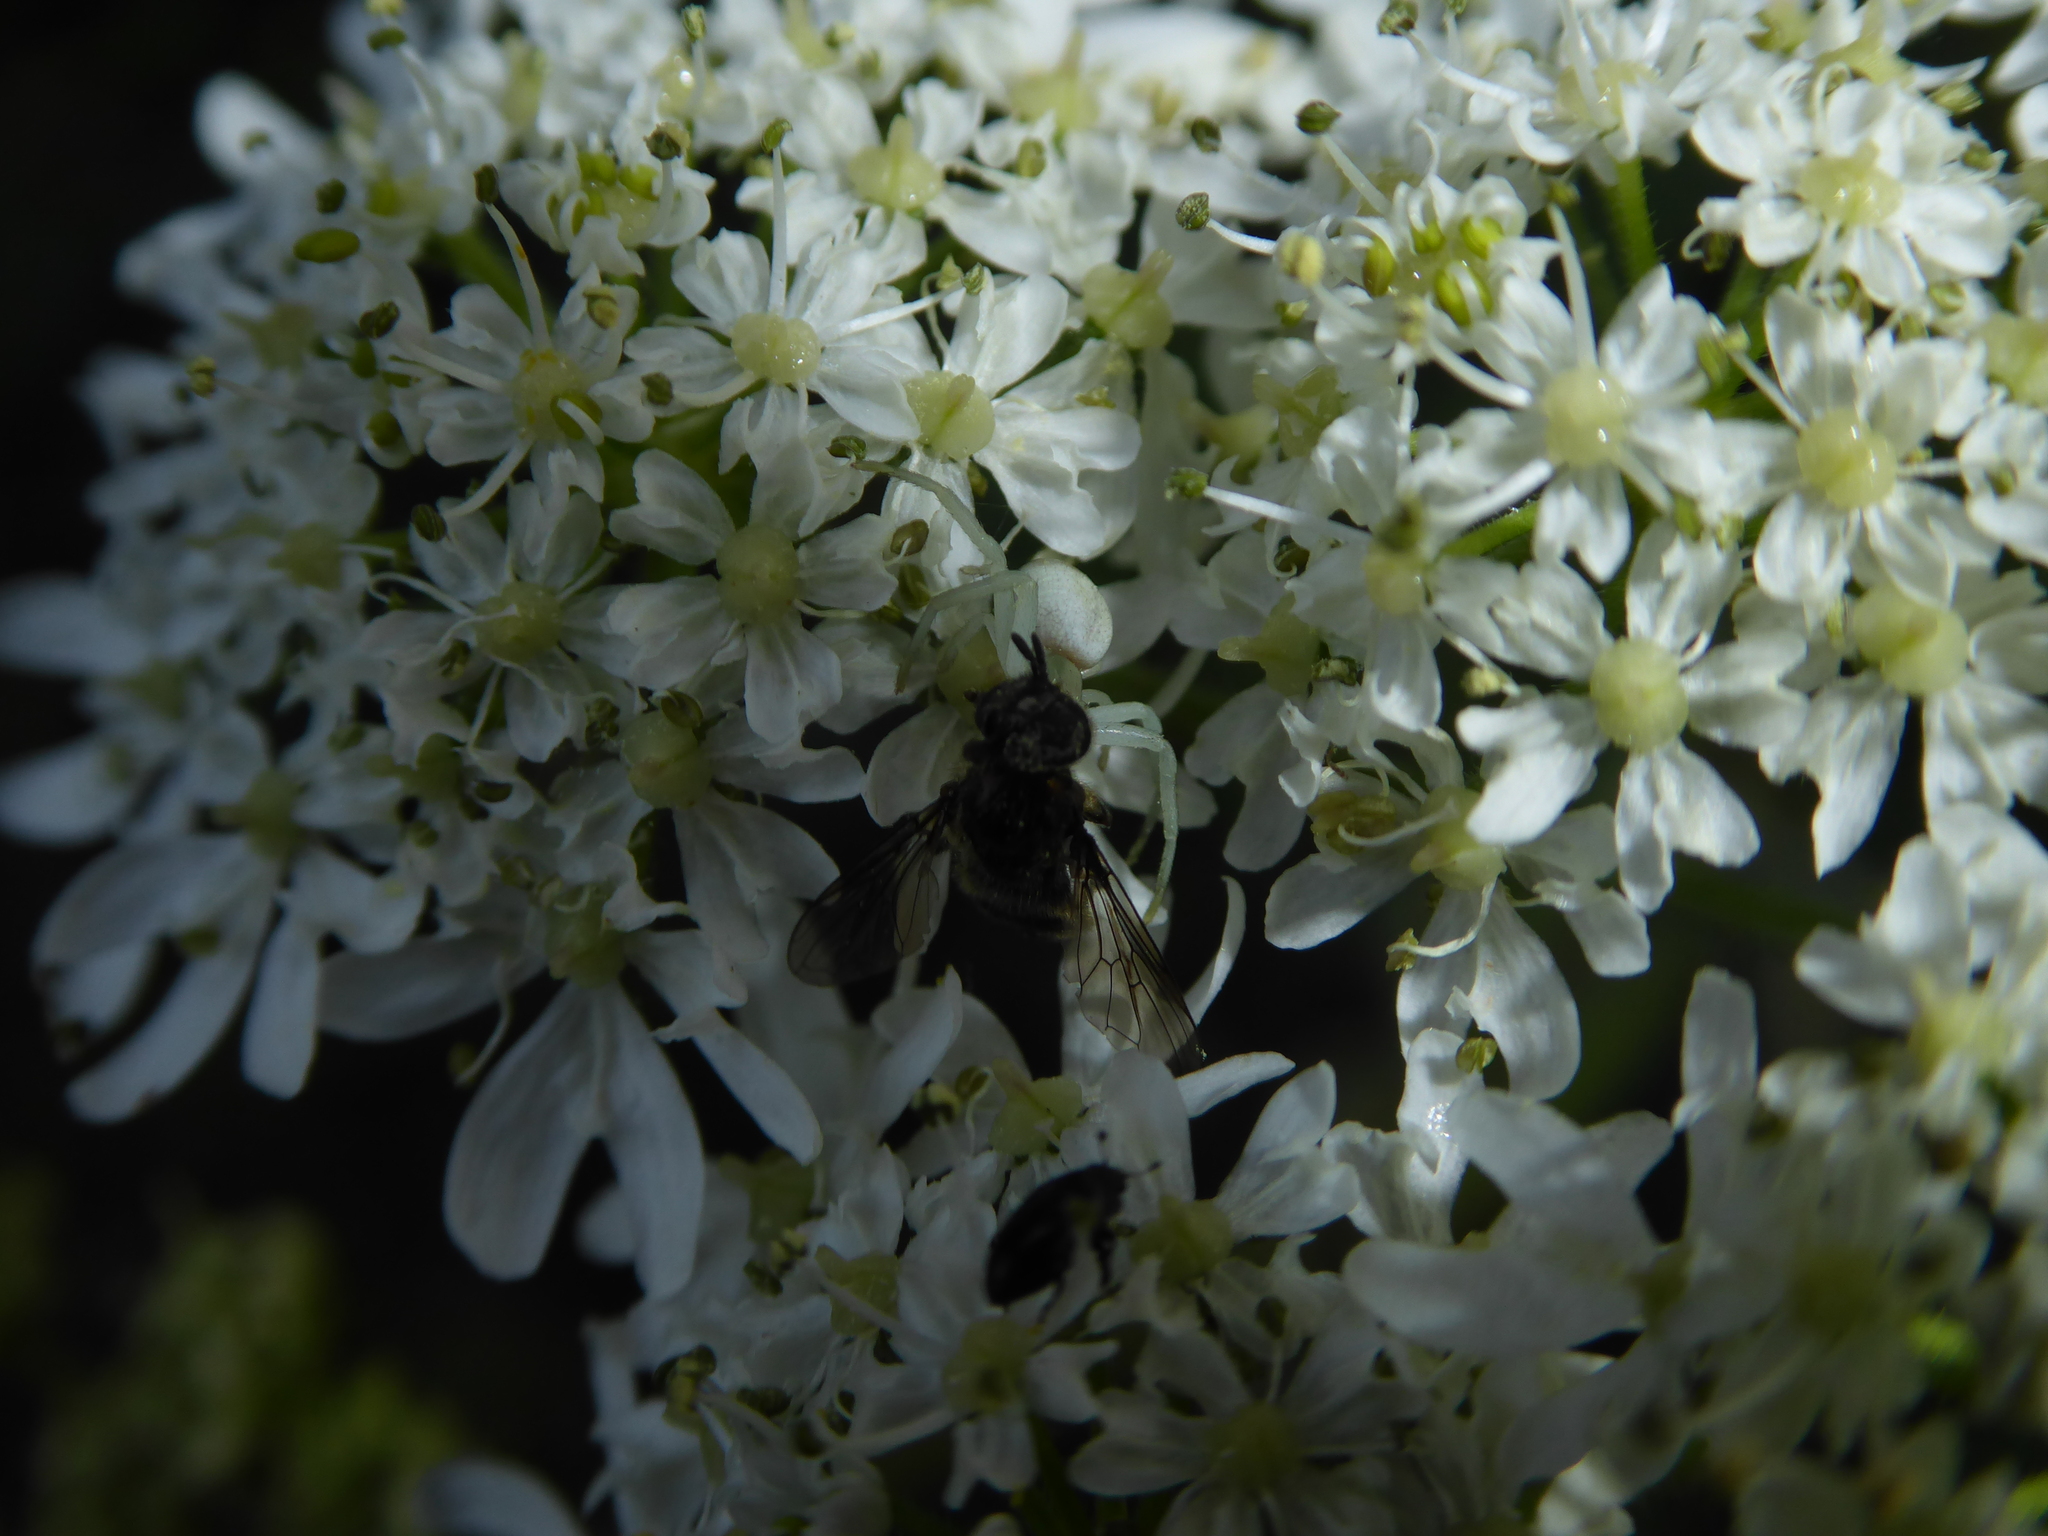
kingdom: Animalia
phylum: Arthropoda
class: Arachnida
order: Araneae
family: Thomisidae
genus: Misumena
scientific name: Misumena vatia
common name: Goldenrod crab spider
